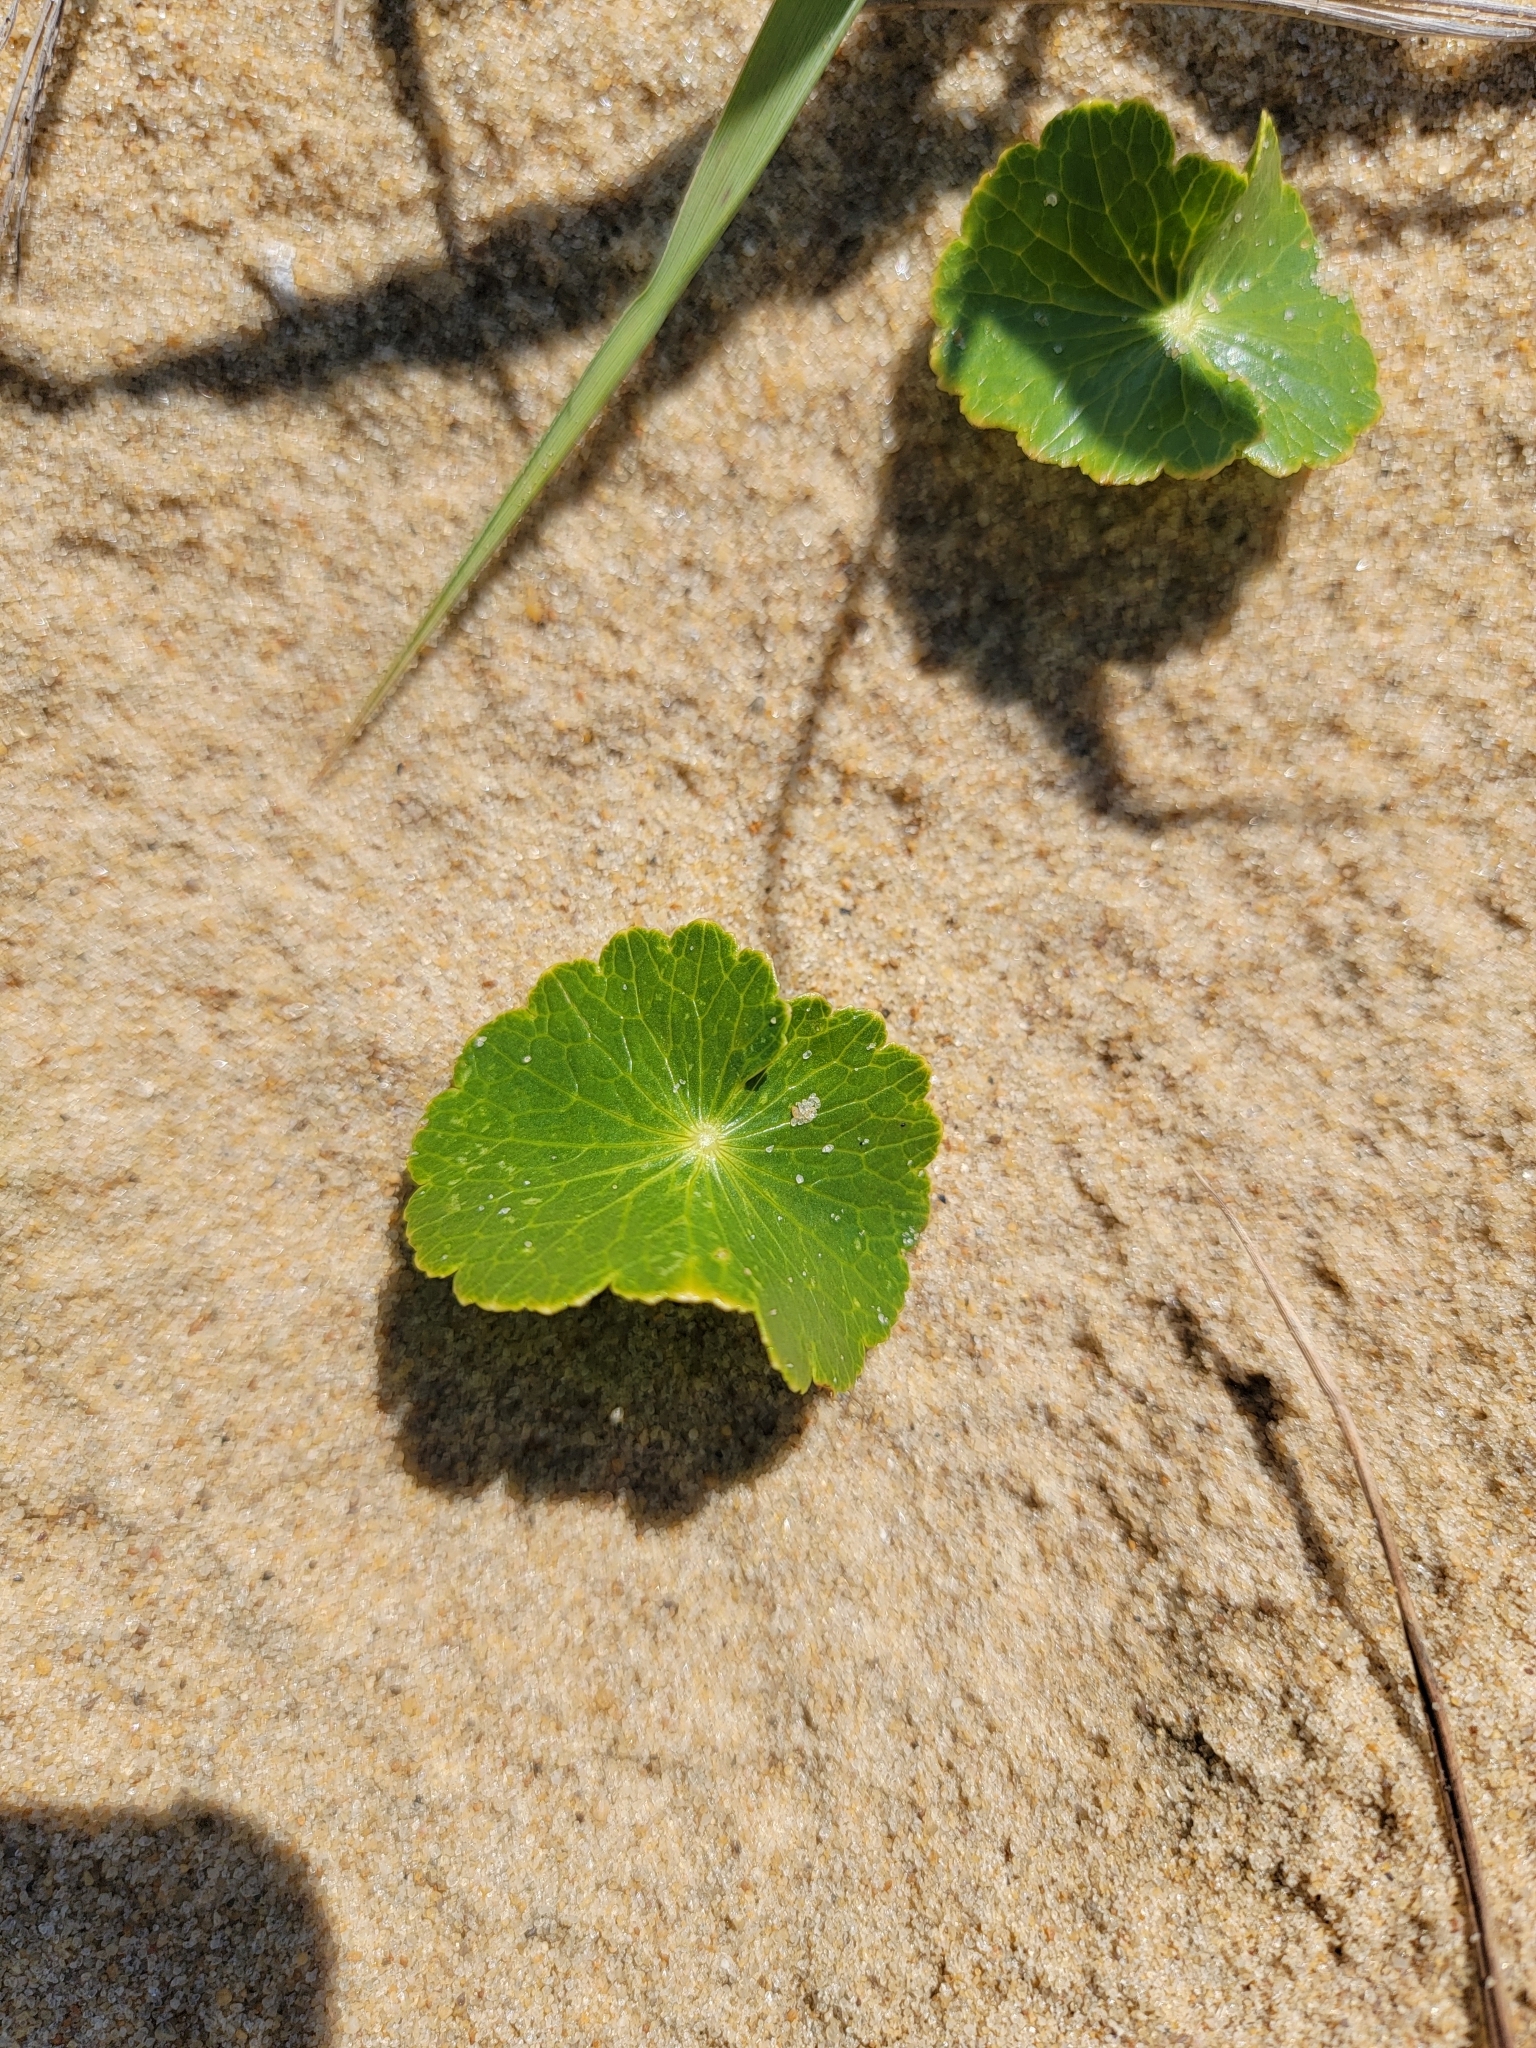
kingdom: Plantae
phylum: Tracheophyta
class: Magnoliopsida
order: Apiales
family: Araliaceae
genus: Hydrocotyle
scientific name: Hydrocotyle bonariensis
